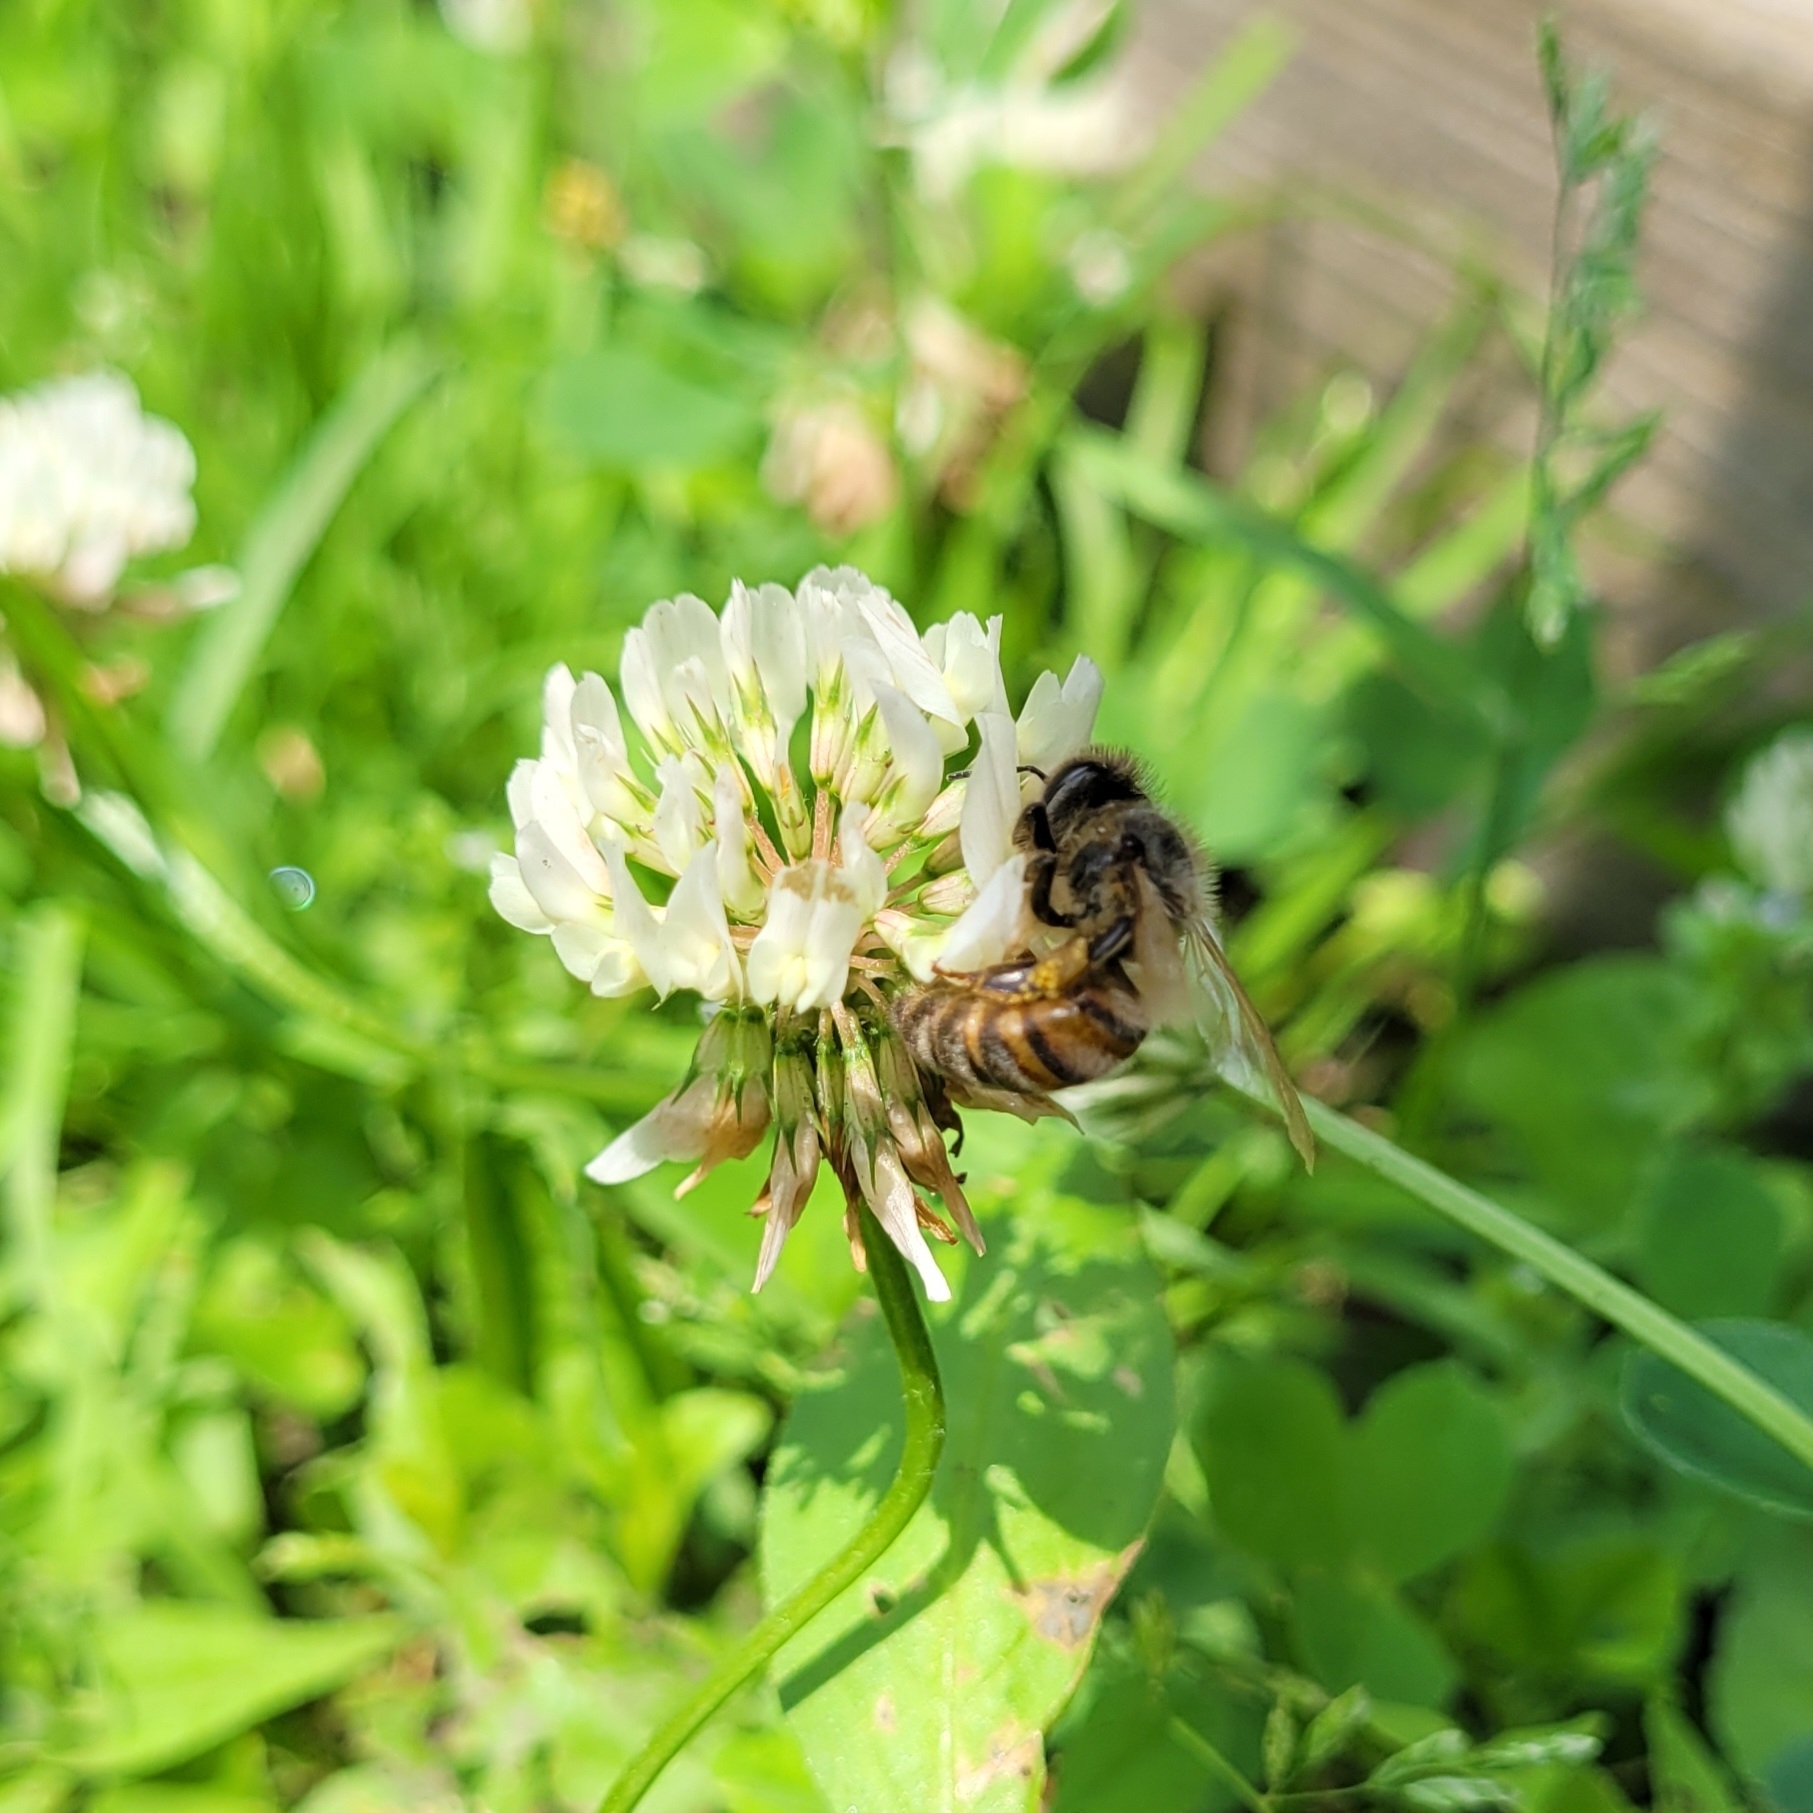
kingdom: Animalia
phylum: Arthropoda
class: Insecta
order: Hymenoptera
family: Apidae
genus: Apis
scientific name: Apis mellifera
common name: Honey bee
